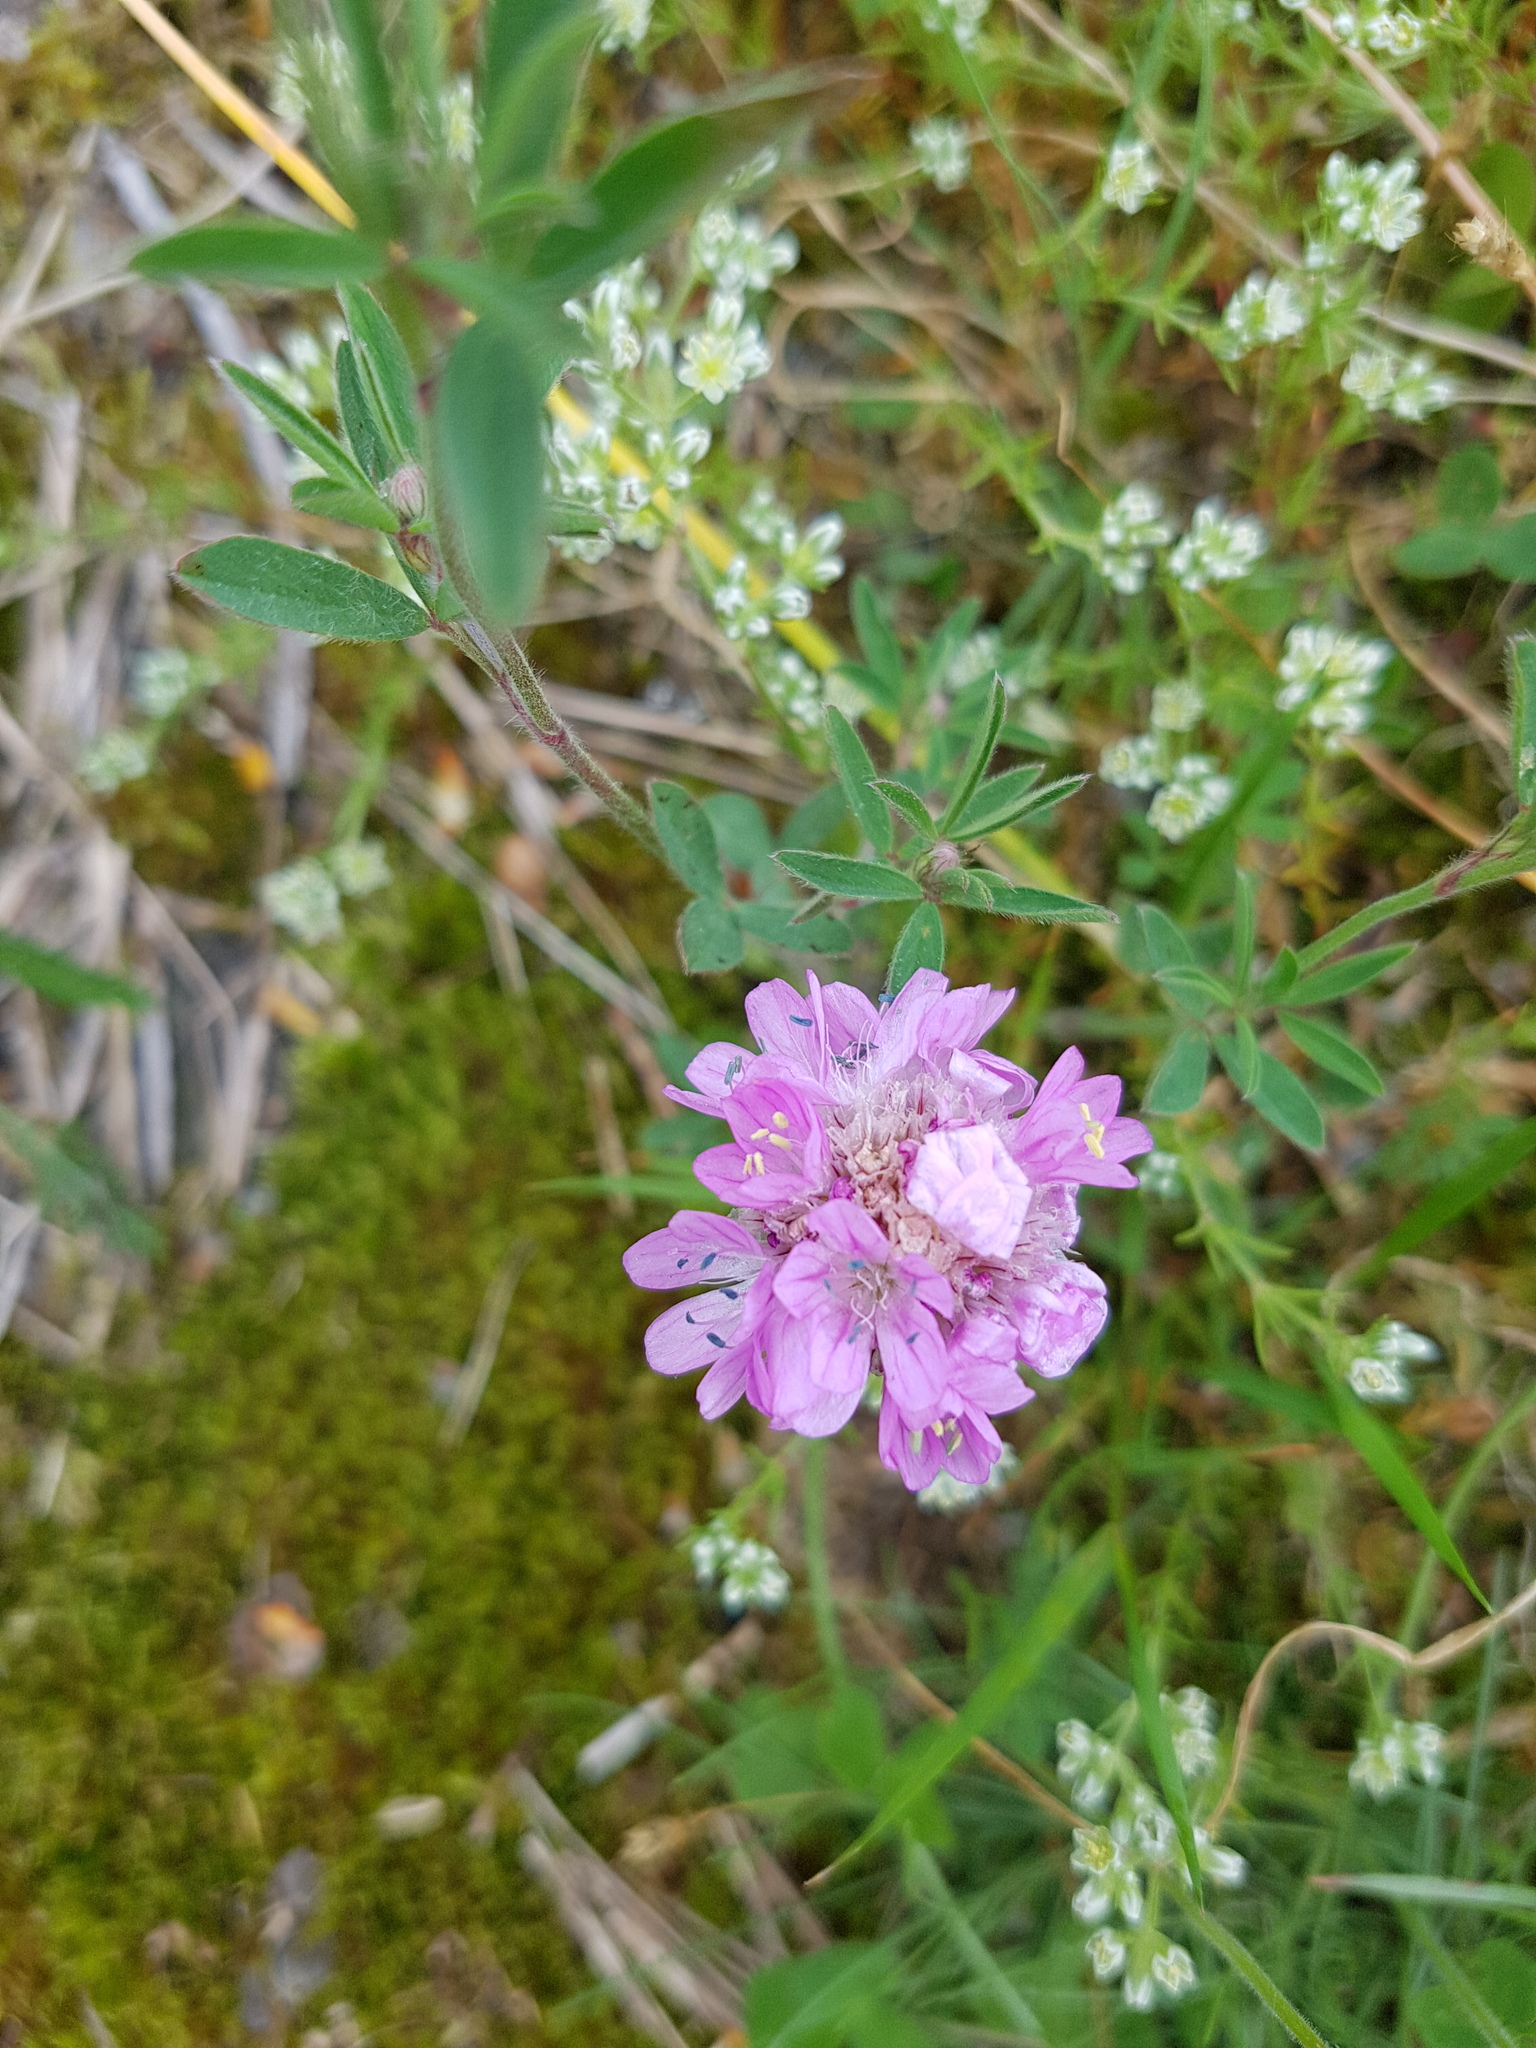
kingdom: Plantae
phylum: Tracheophyta
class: Magnoliopsida
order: Caryophyllales
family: Plumbaginaceae
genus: Armeria
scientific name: Armeria maritima
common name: Thrift
